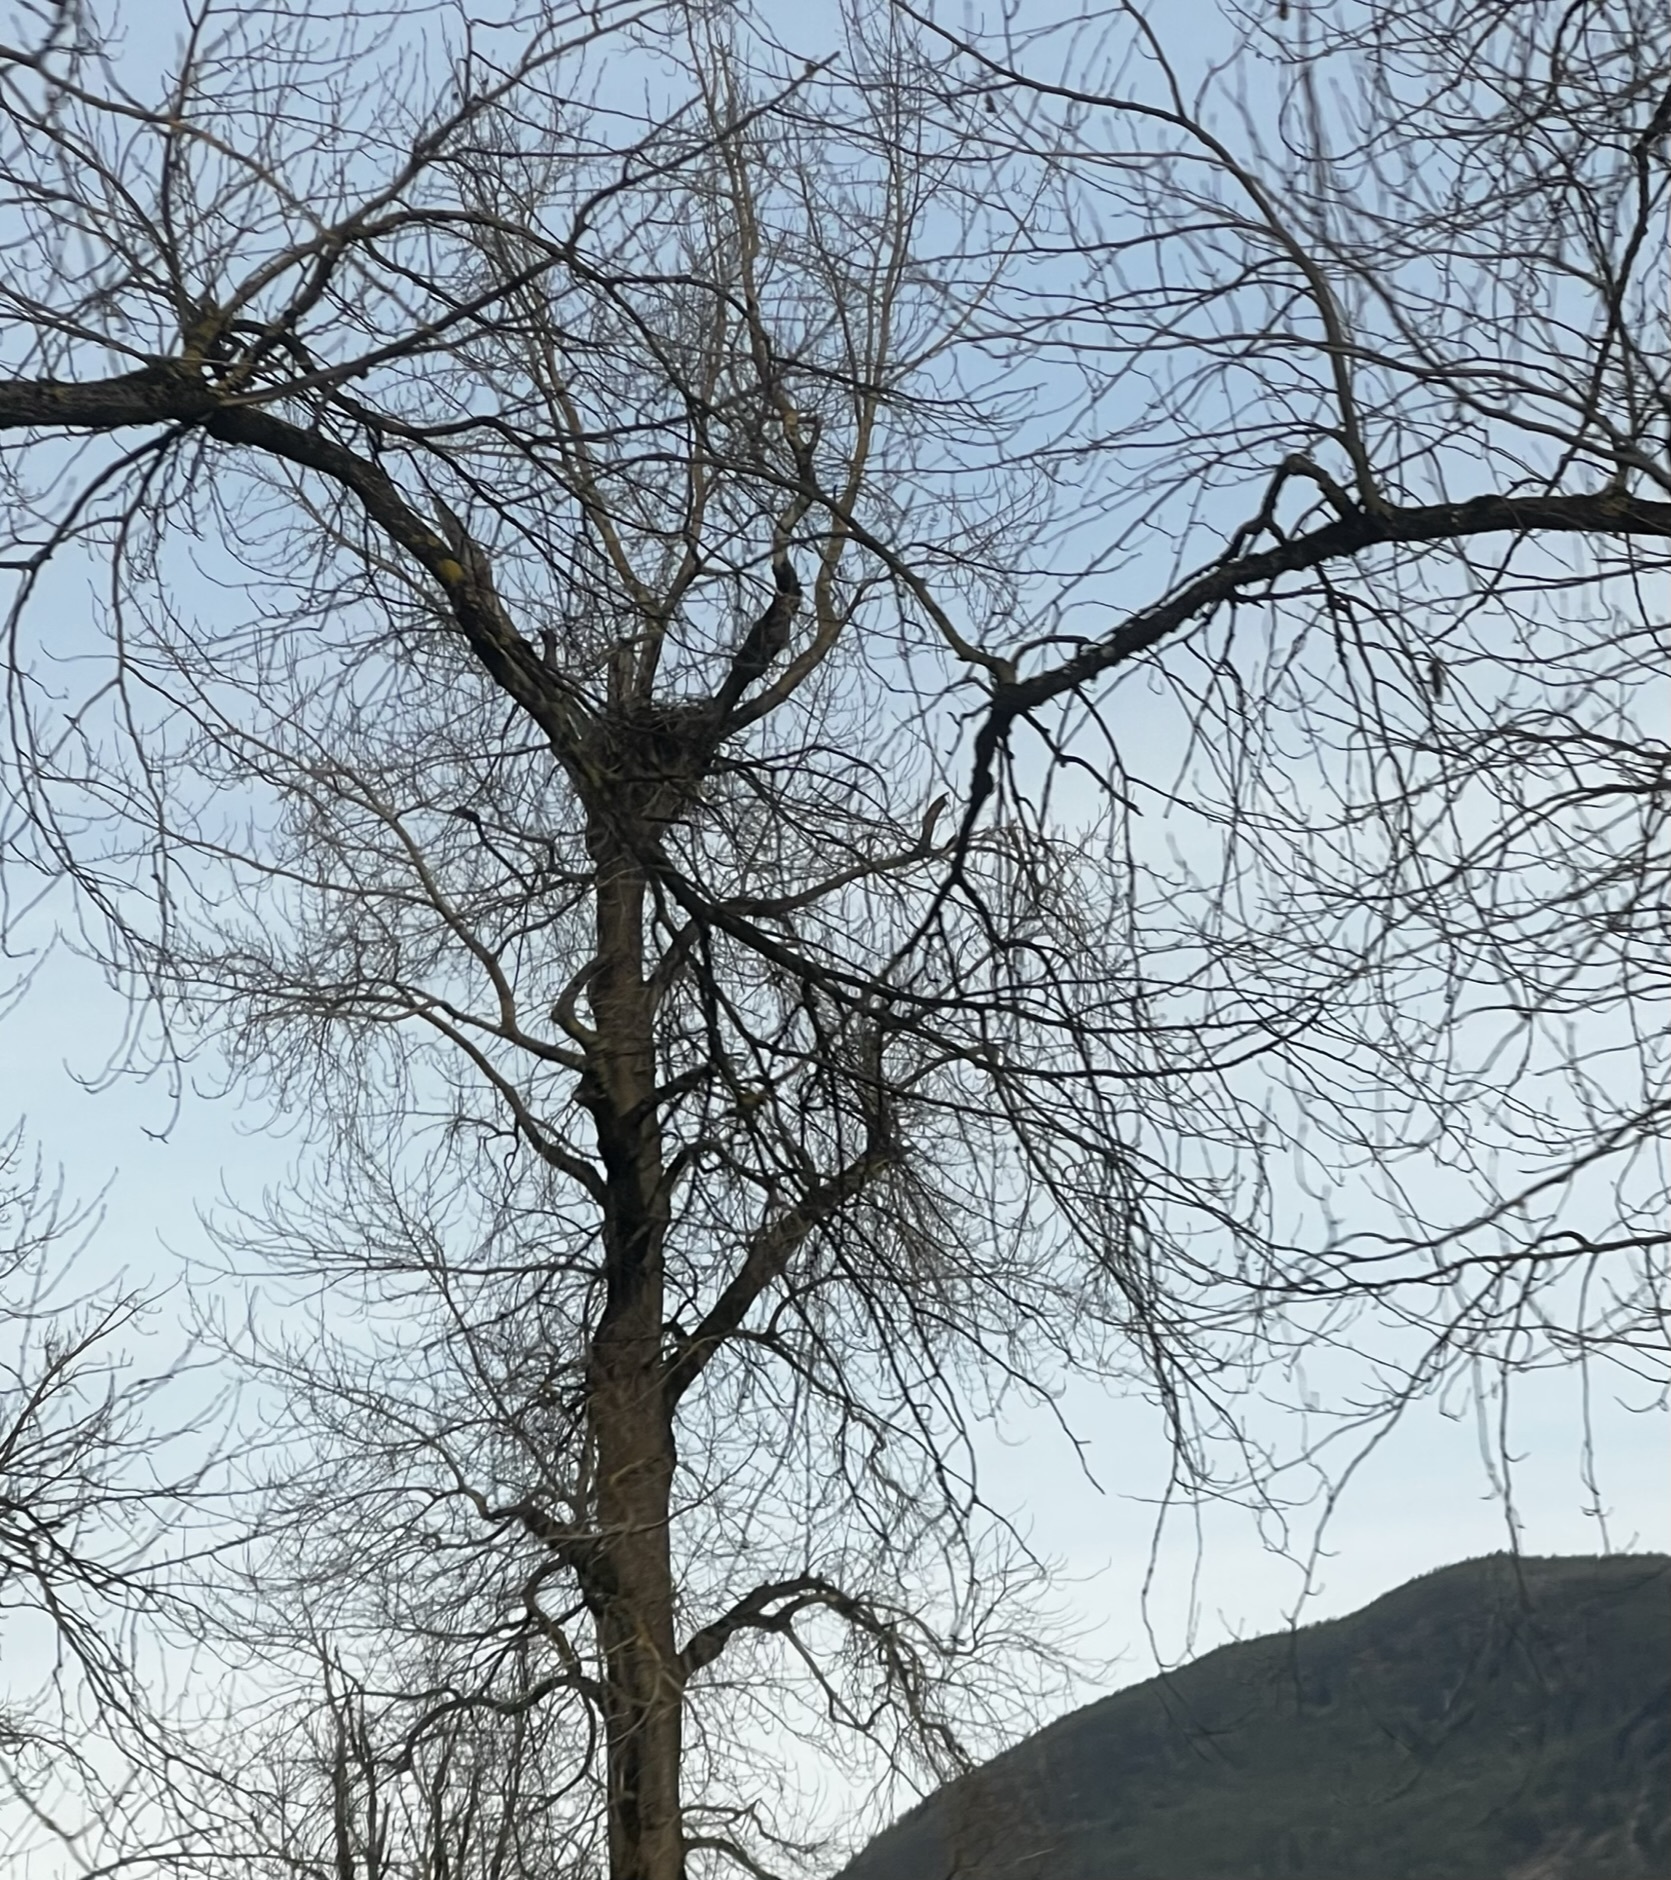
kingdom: Animalia
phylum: Chordata
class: Aves
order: Accipitriformes
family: Accipitridae
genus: Haliaeetus
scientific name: Haliaeetus leucocephalus
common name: Bald eagle
